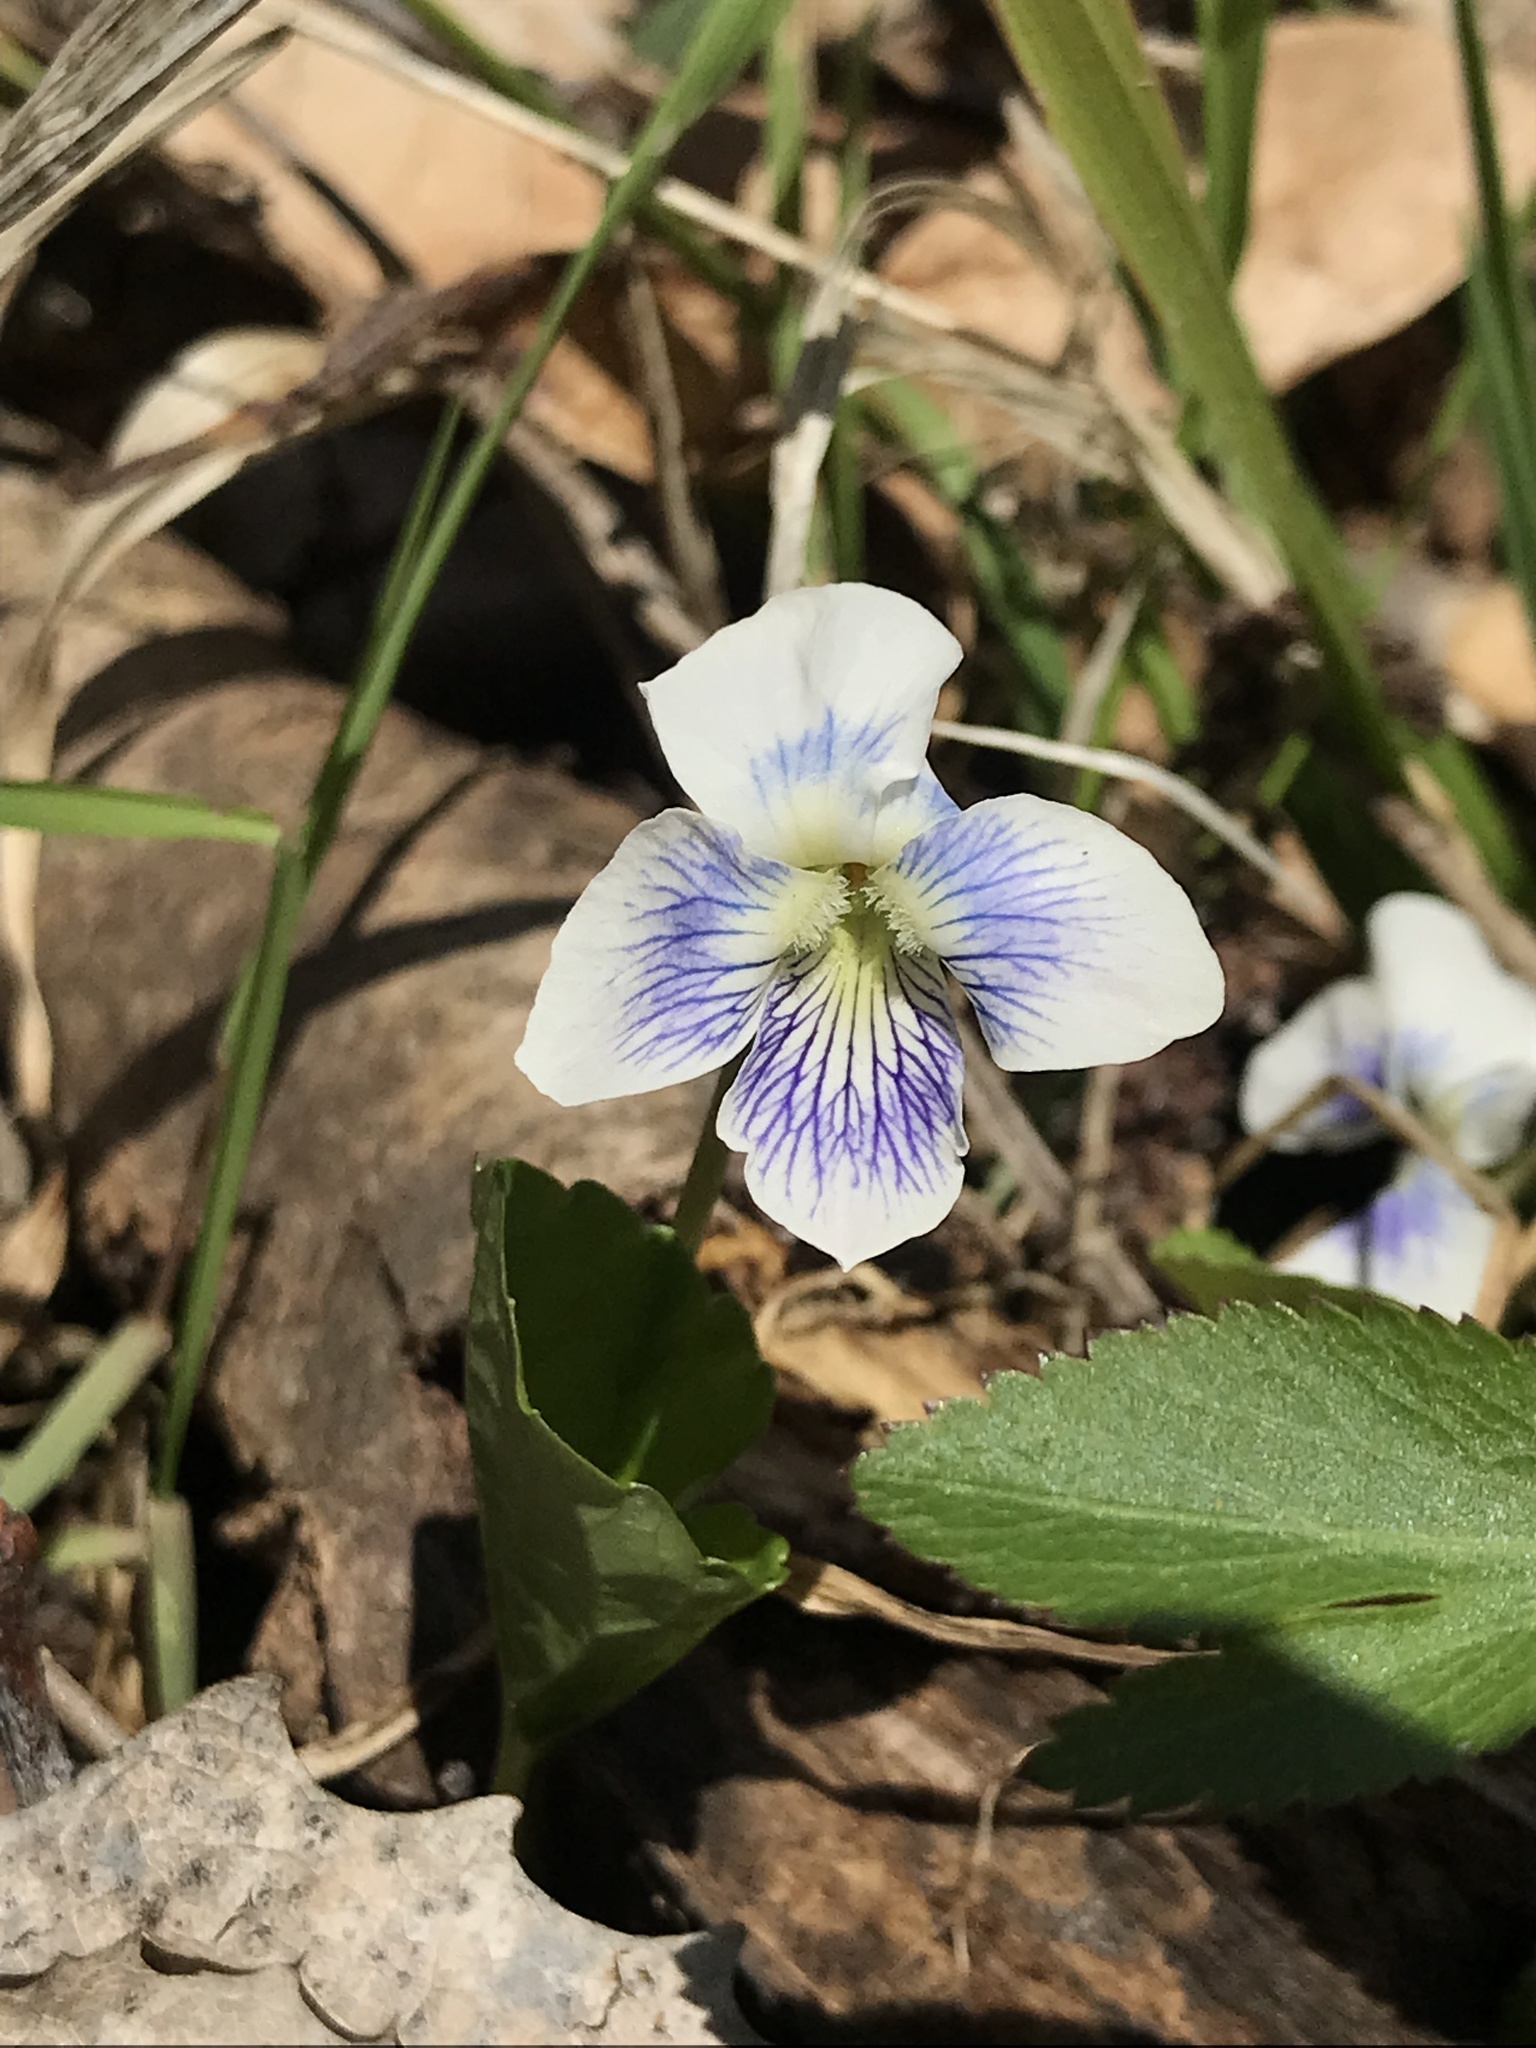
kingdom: Plantae
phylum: Tracheophyta
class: Magnoliopsida
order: Malpighiales
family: Violaceae
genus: Viola
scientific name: Viola sororia
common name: Dooryard violet
